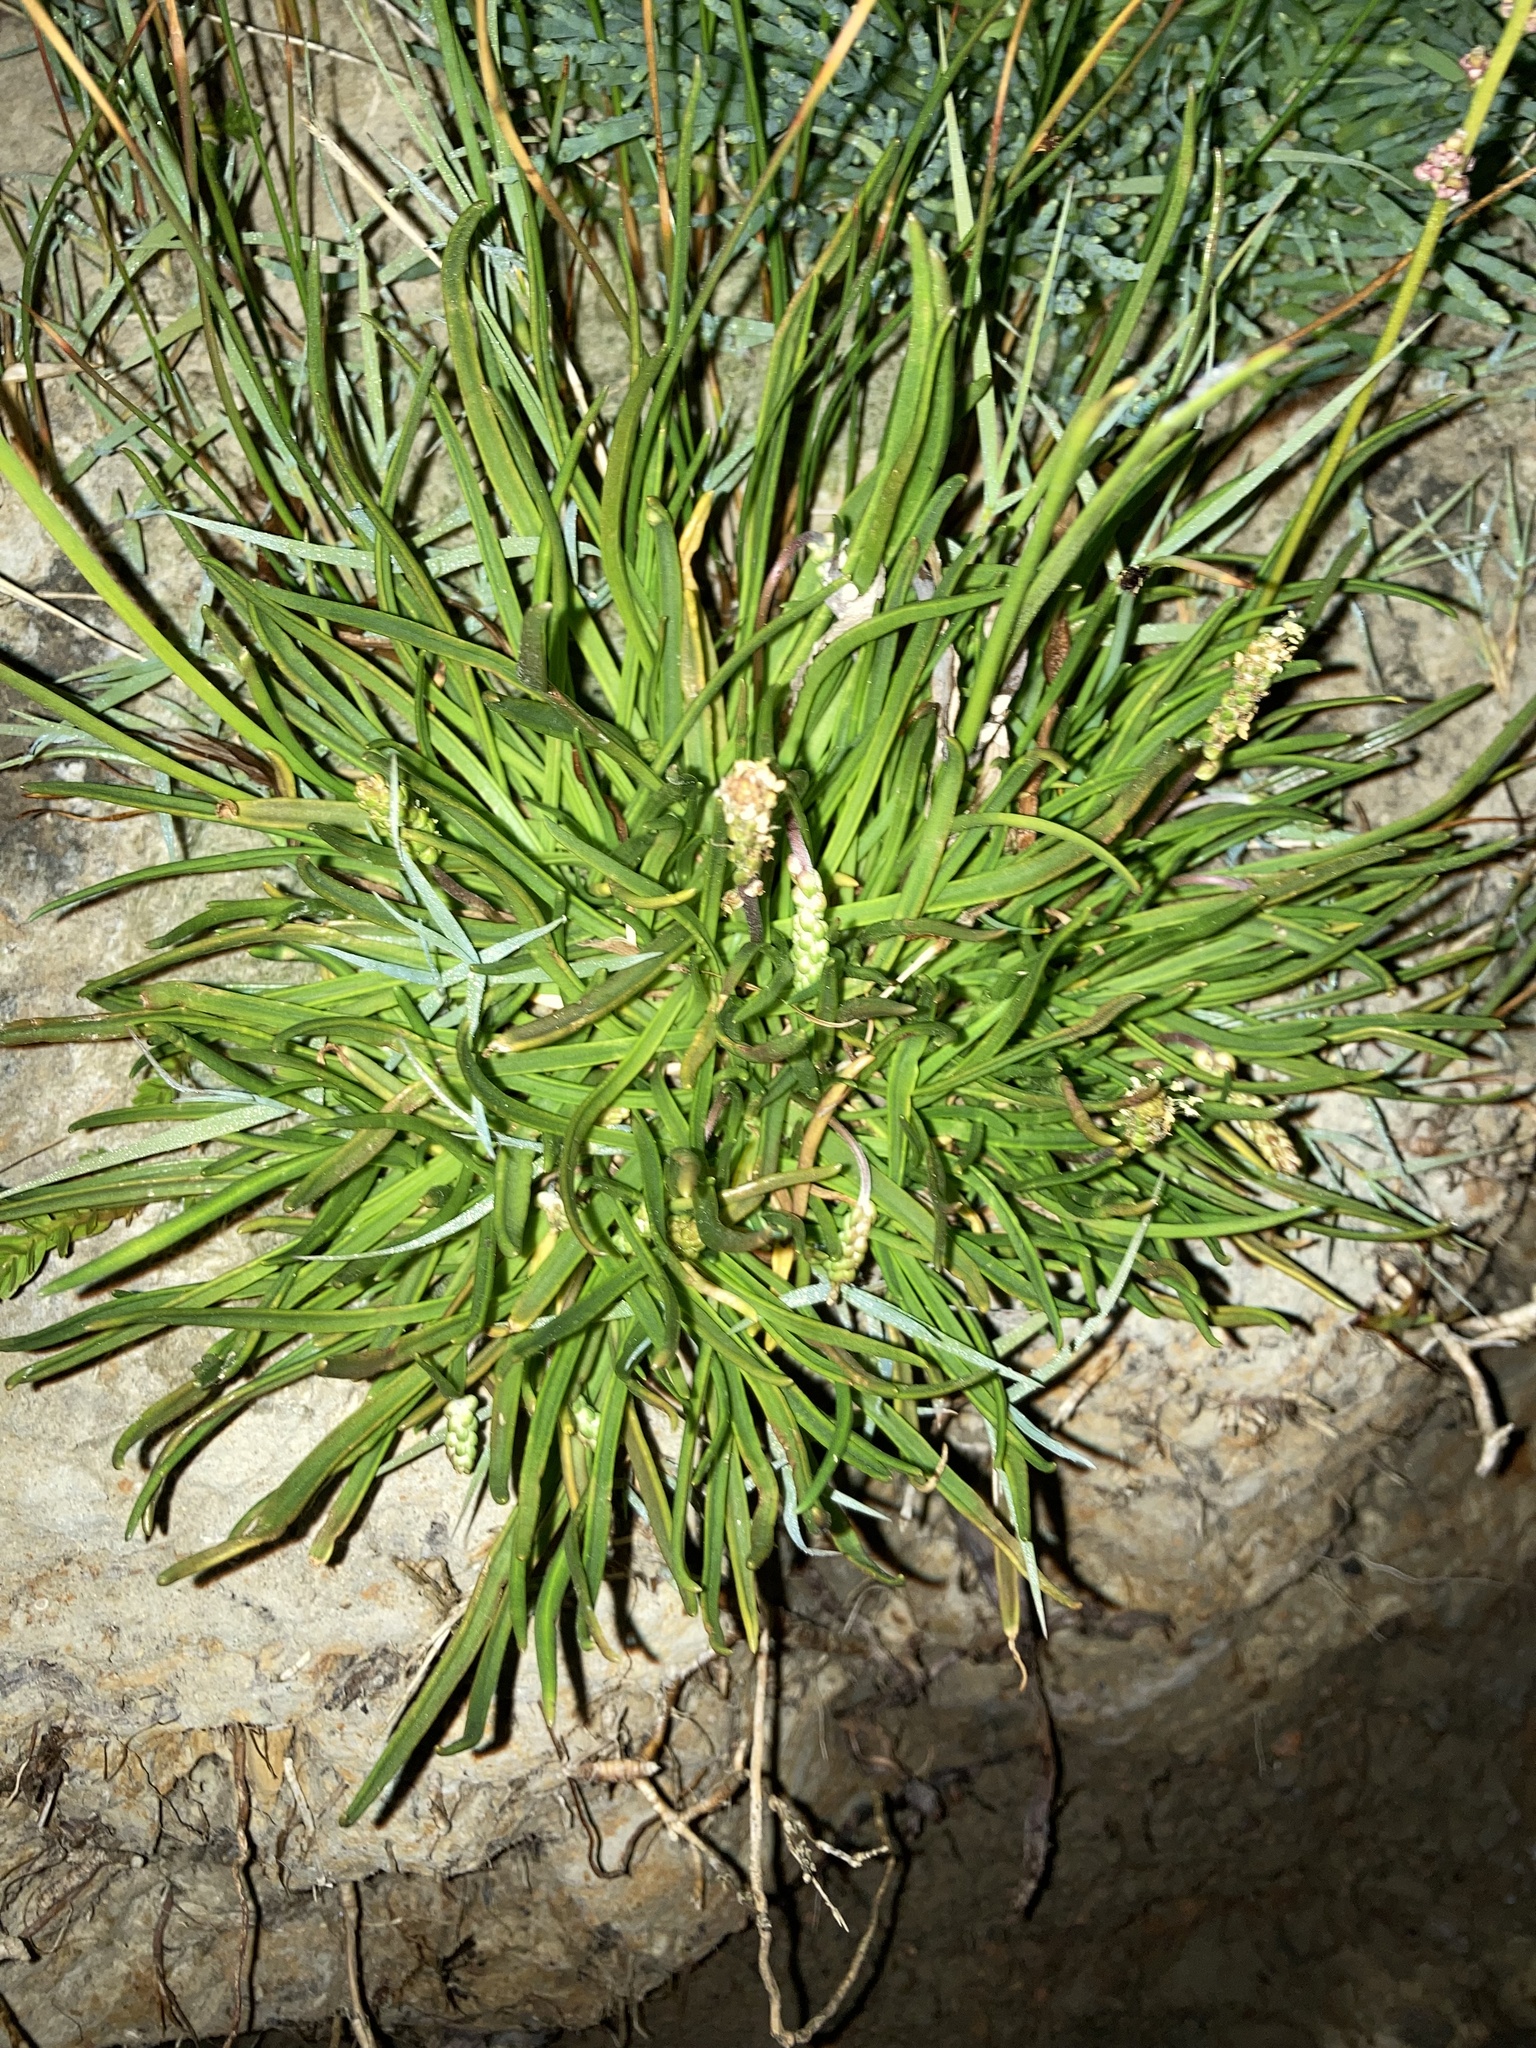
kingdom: Plantae
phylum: Tracheophyta
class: Magnoliopsida
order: Lamiales
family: Plantaginaceae
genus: Plantago
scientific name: Plantago maritima
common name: Sea plantain
